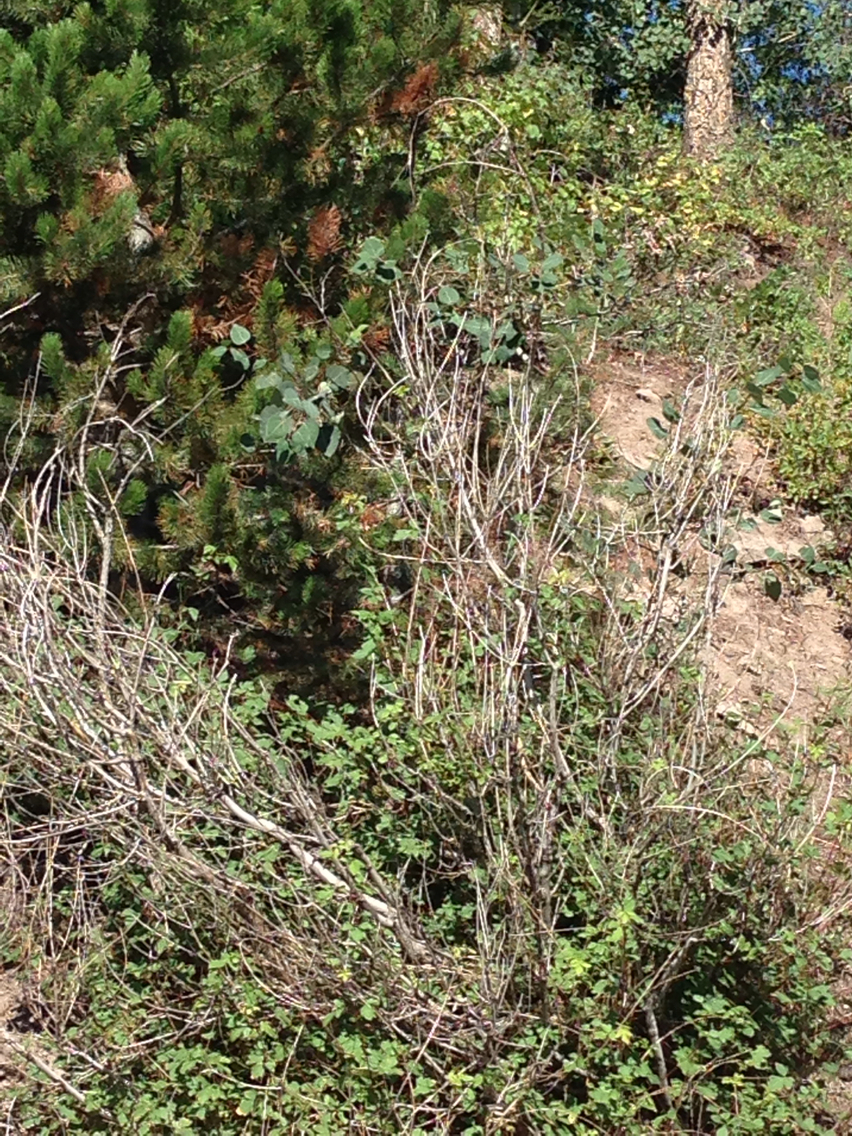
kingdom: Plantae
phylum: Tracheophyta
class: Magnoliopsida
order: Malpighiales
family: Salicaceae
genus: Populus
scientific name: Populus tremuloides
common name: Quaking aspen
